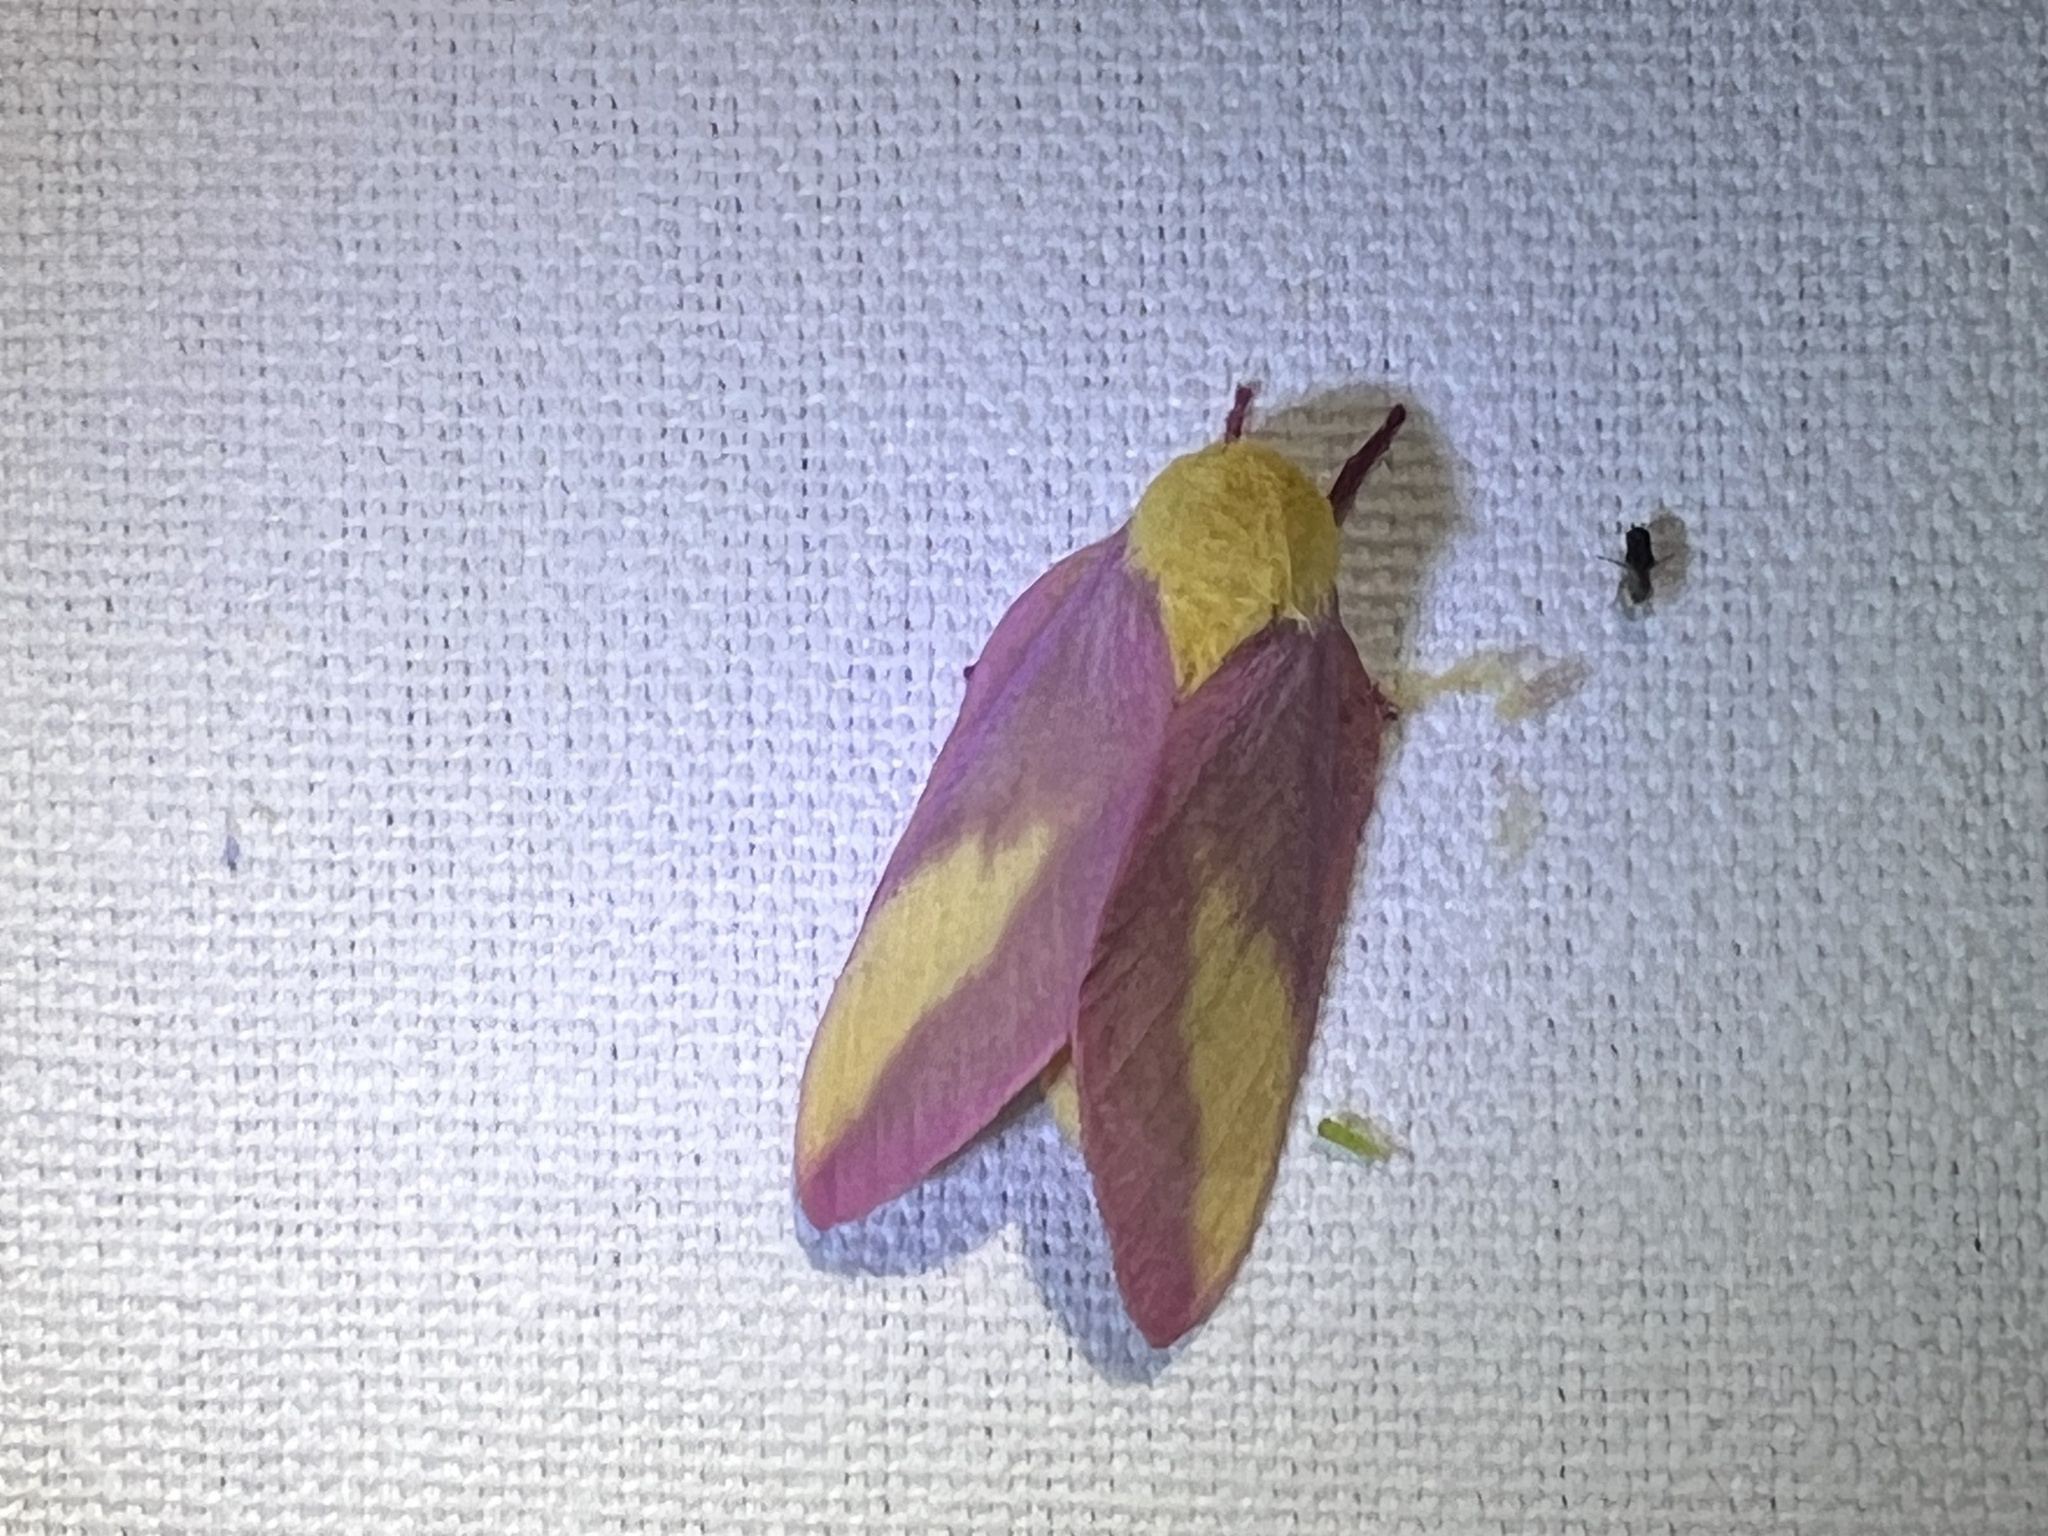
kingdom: Animalia
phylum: Arthropoda
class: Insecta
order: Lepidoptera
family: Saturniidae
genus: Dryocampa
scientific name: Dryocampa rubicunda
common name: Rosy maple moth
